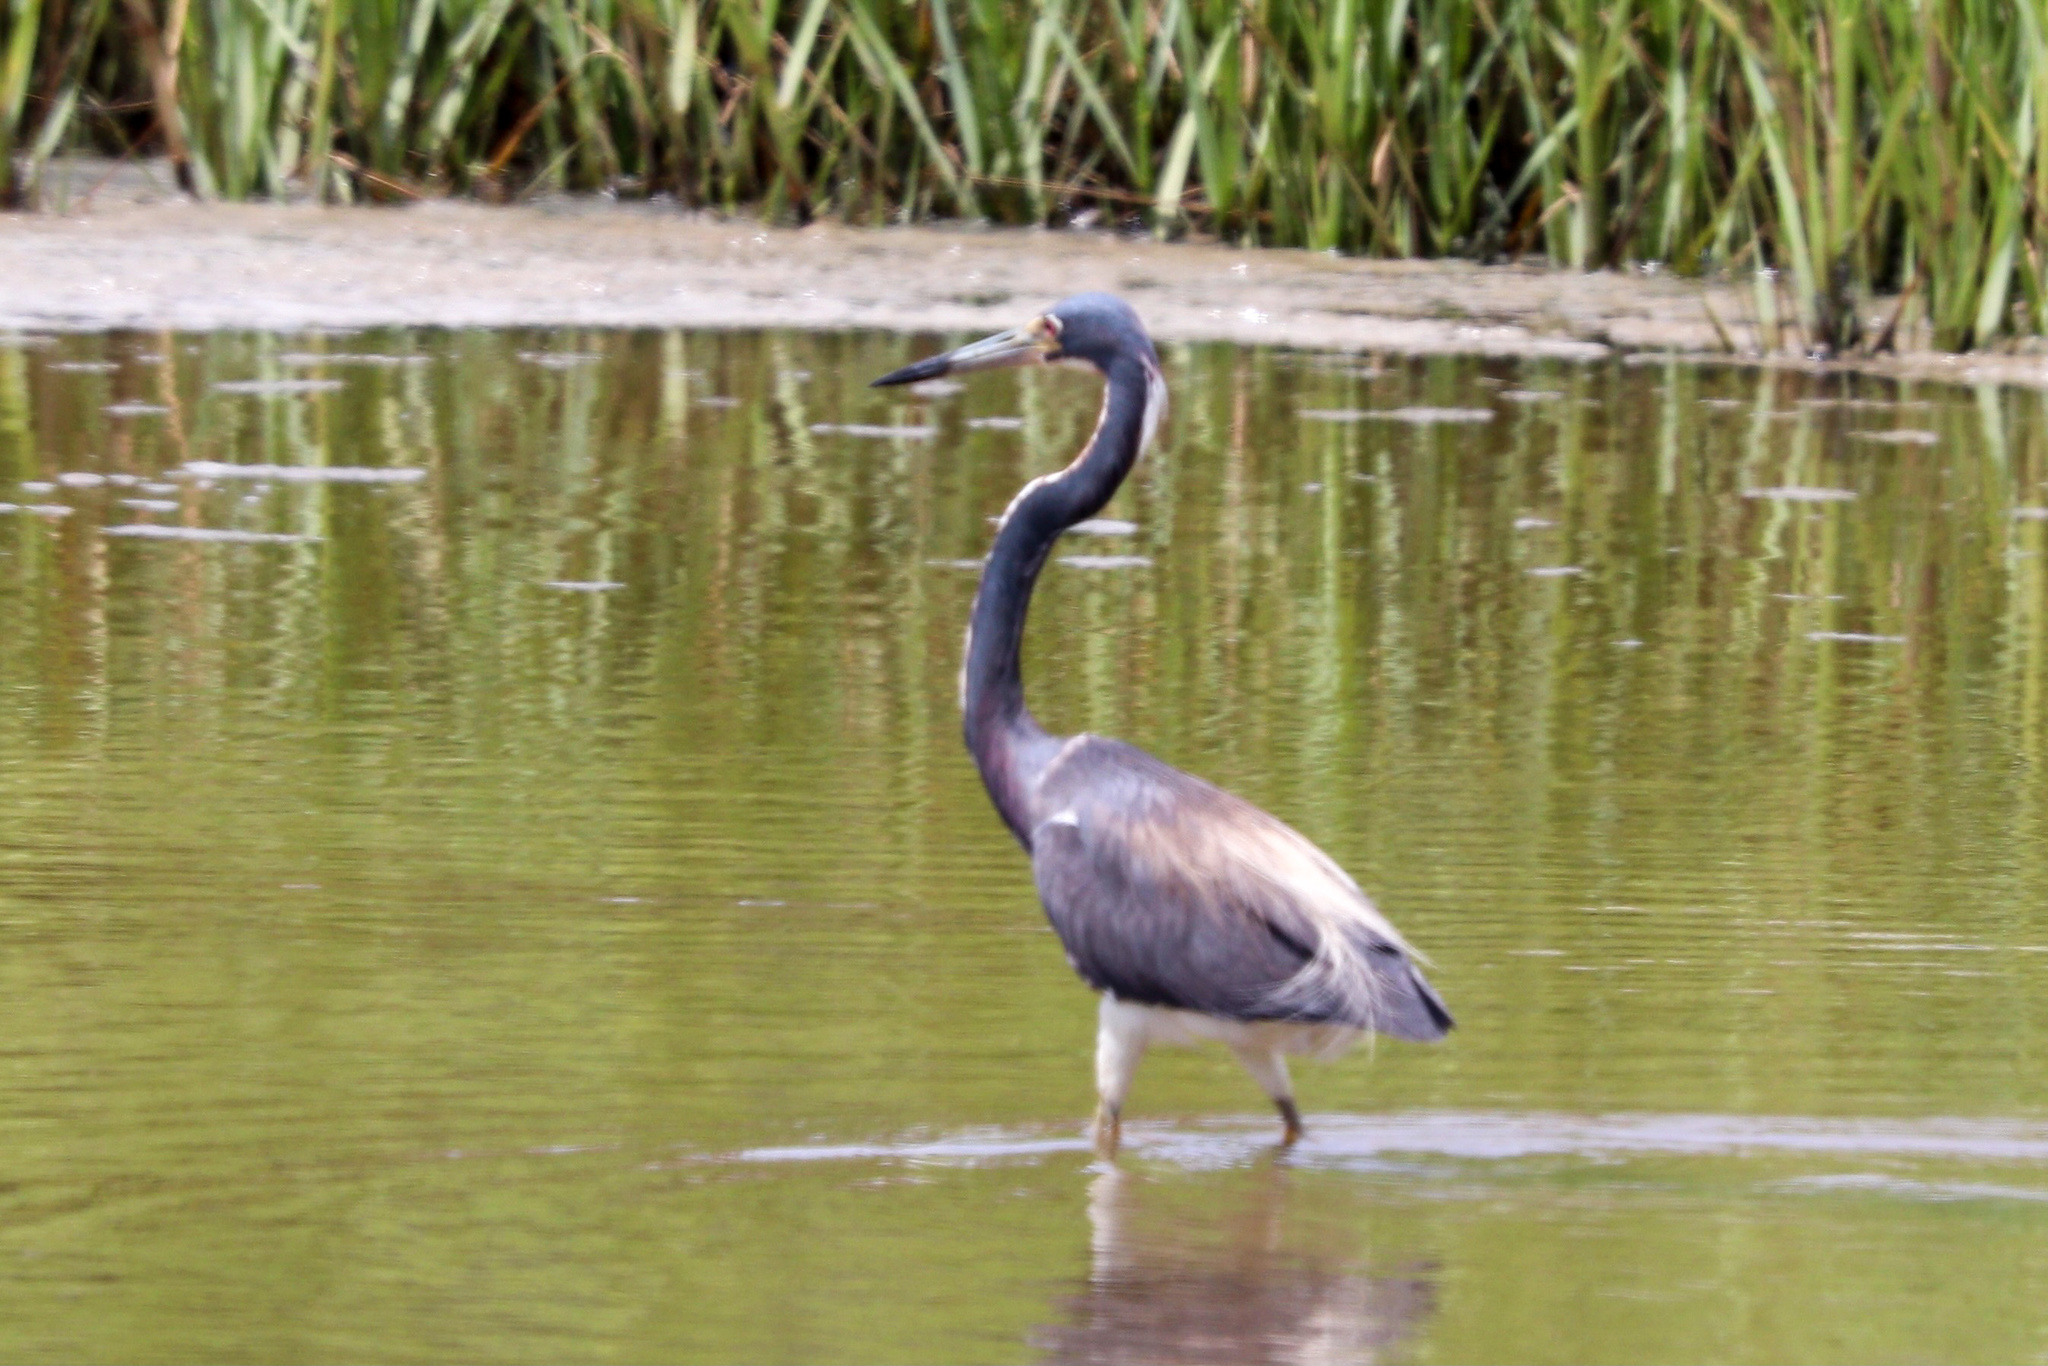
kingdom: Animalia
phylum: Chordata
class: Aves
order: Pelecaniformes
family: Ardeidae
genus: Egretta
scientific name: Egretta tricolor
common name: Tricolored heron
